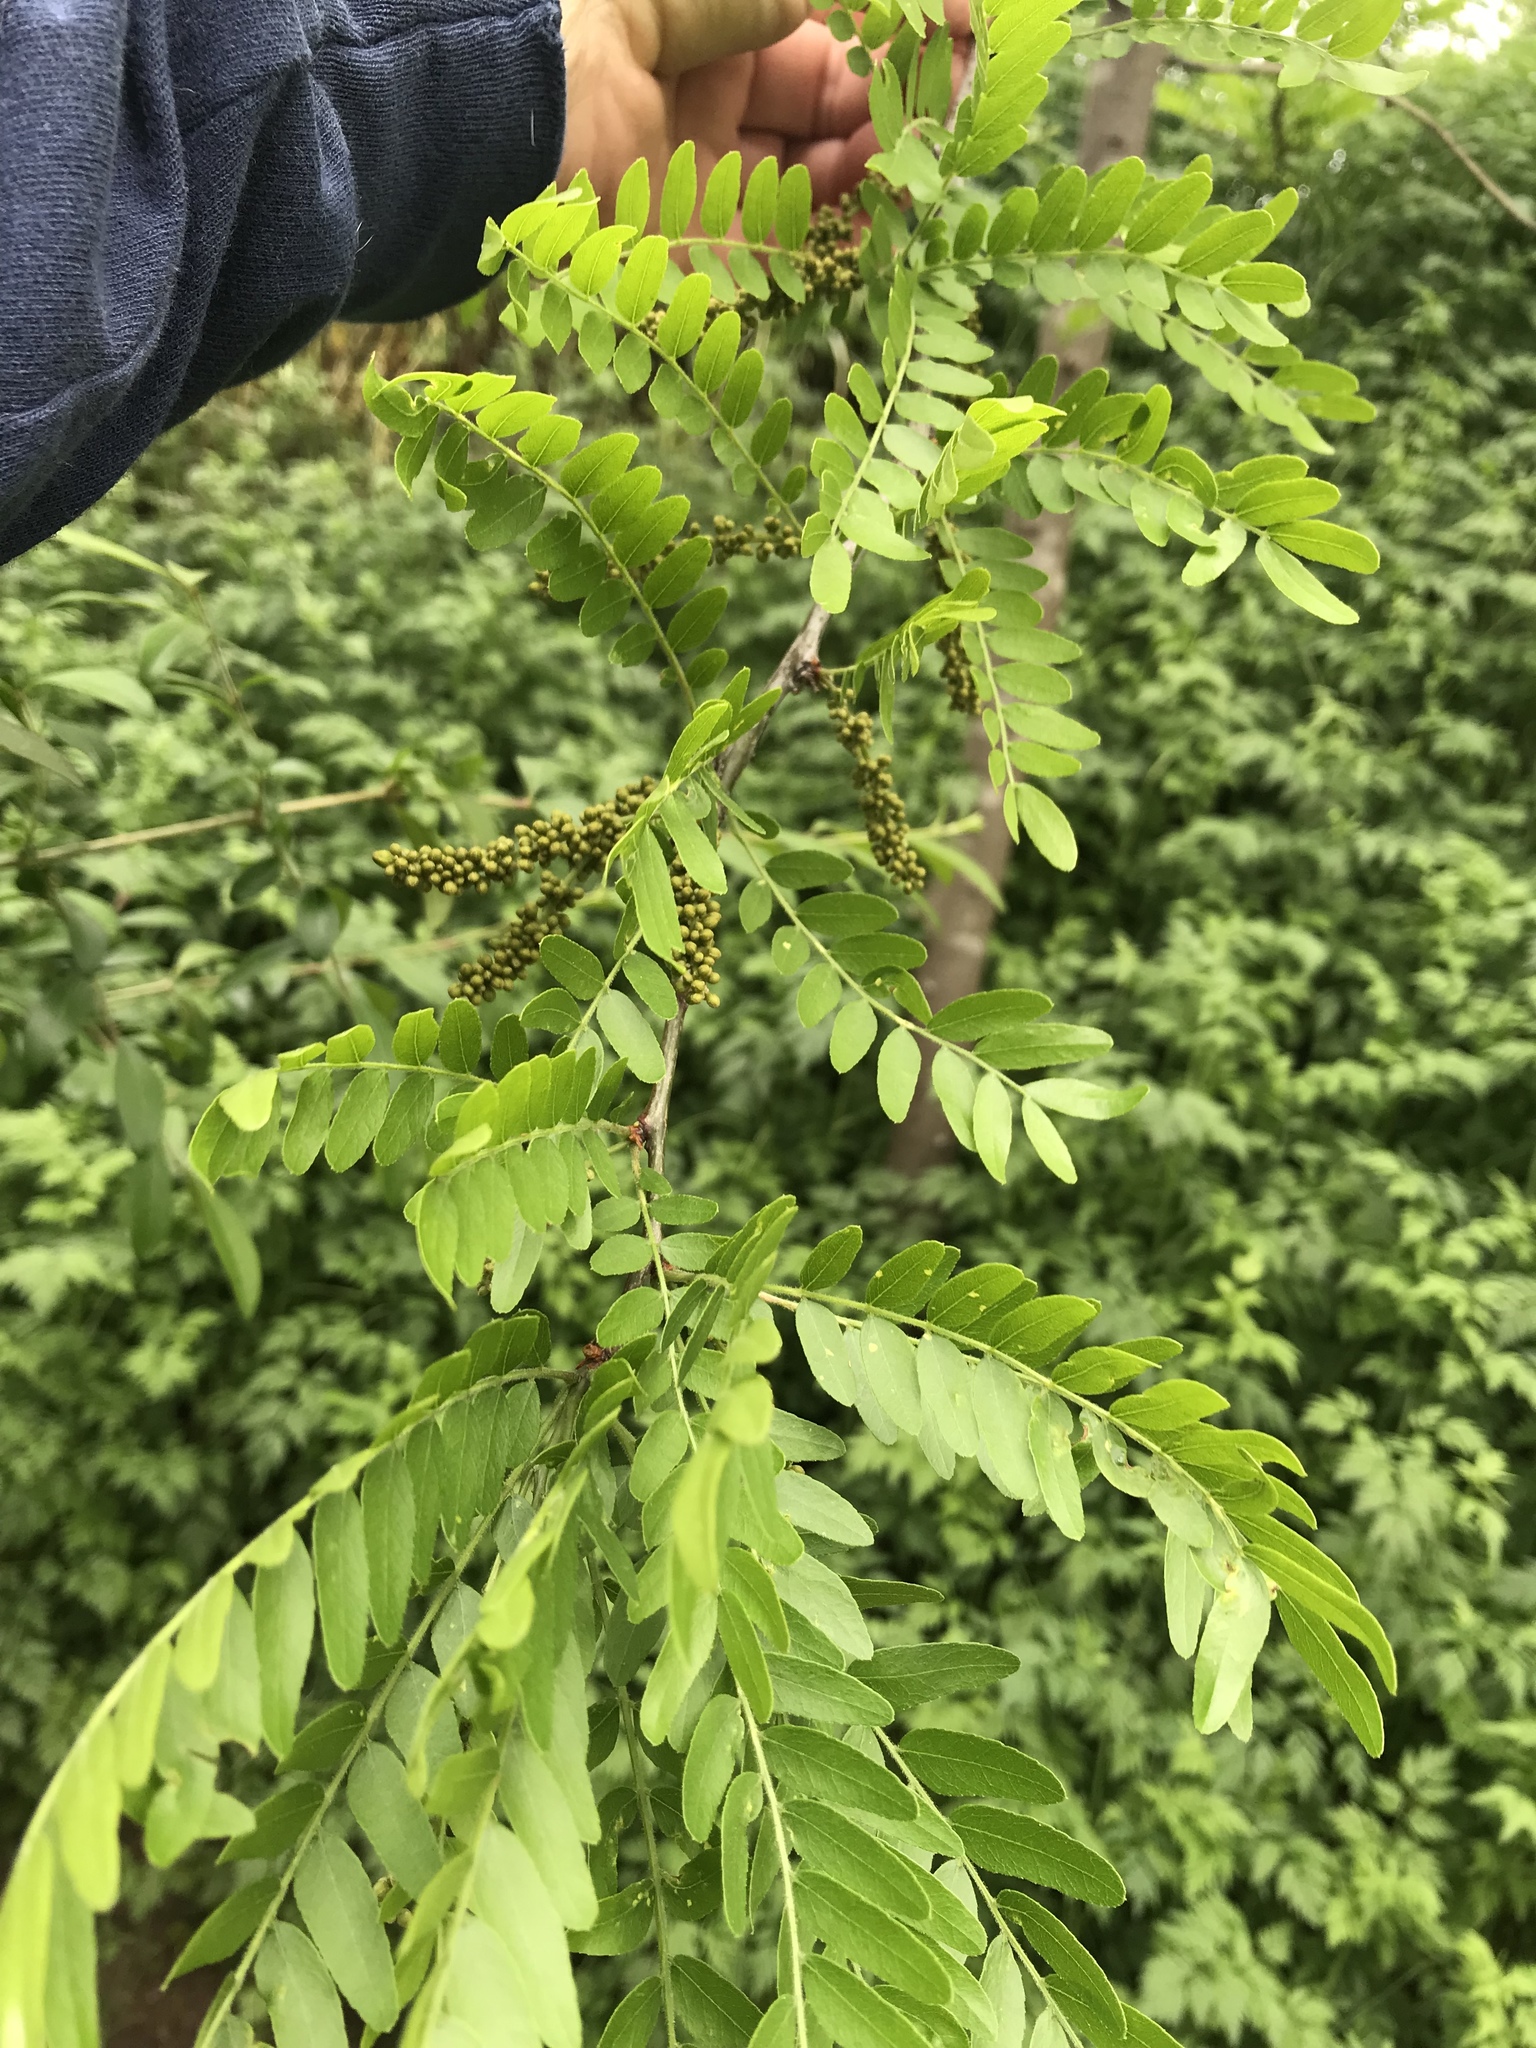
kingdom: Plantae
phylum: Tracheophyta
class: Magnoliopsida
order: Fabales
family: Fabaceae
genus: Gleditsia
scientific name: Gleditsia triacanthos
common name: Common honeylocust
